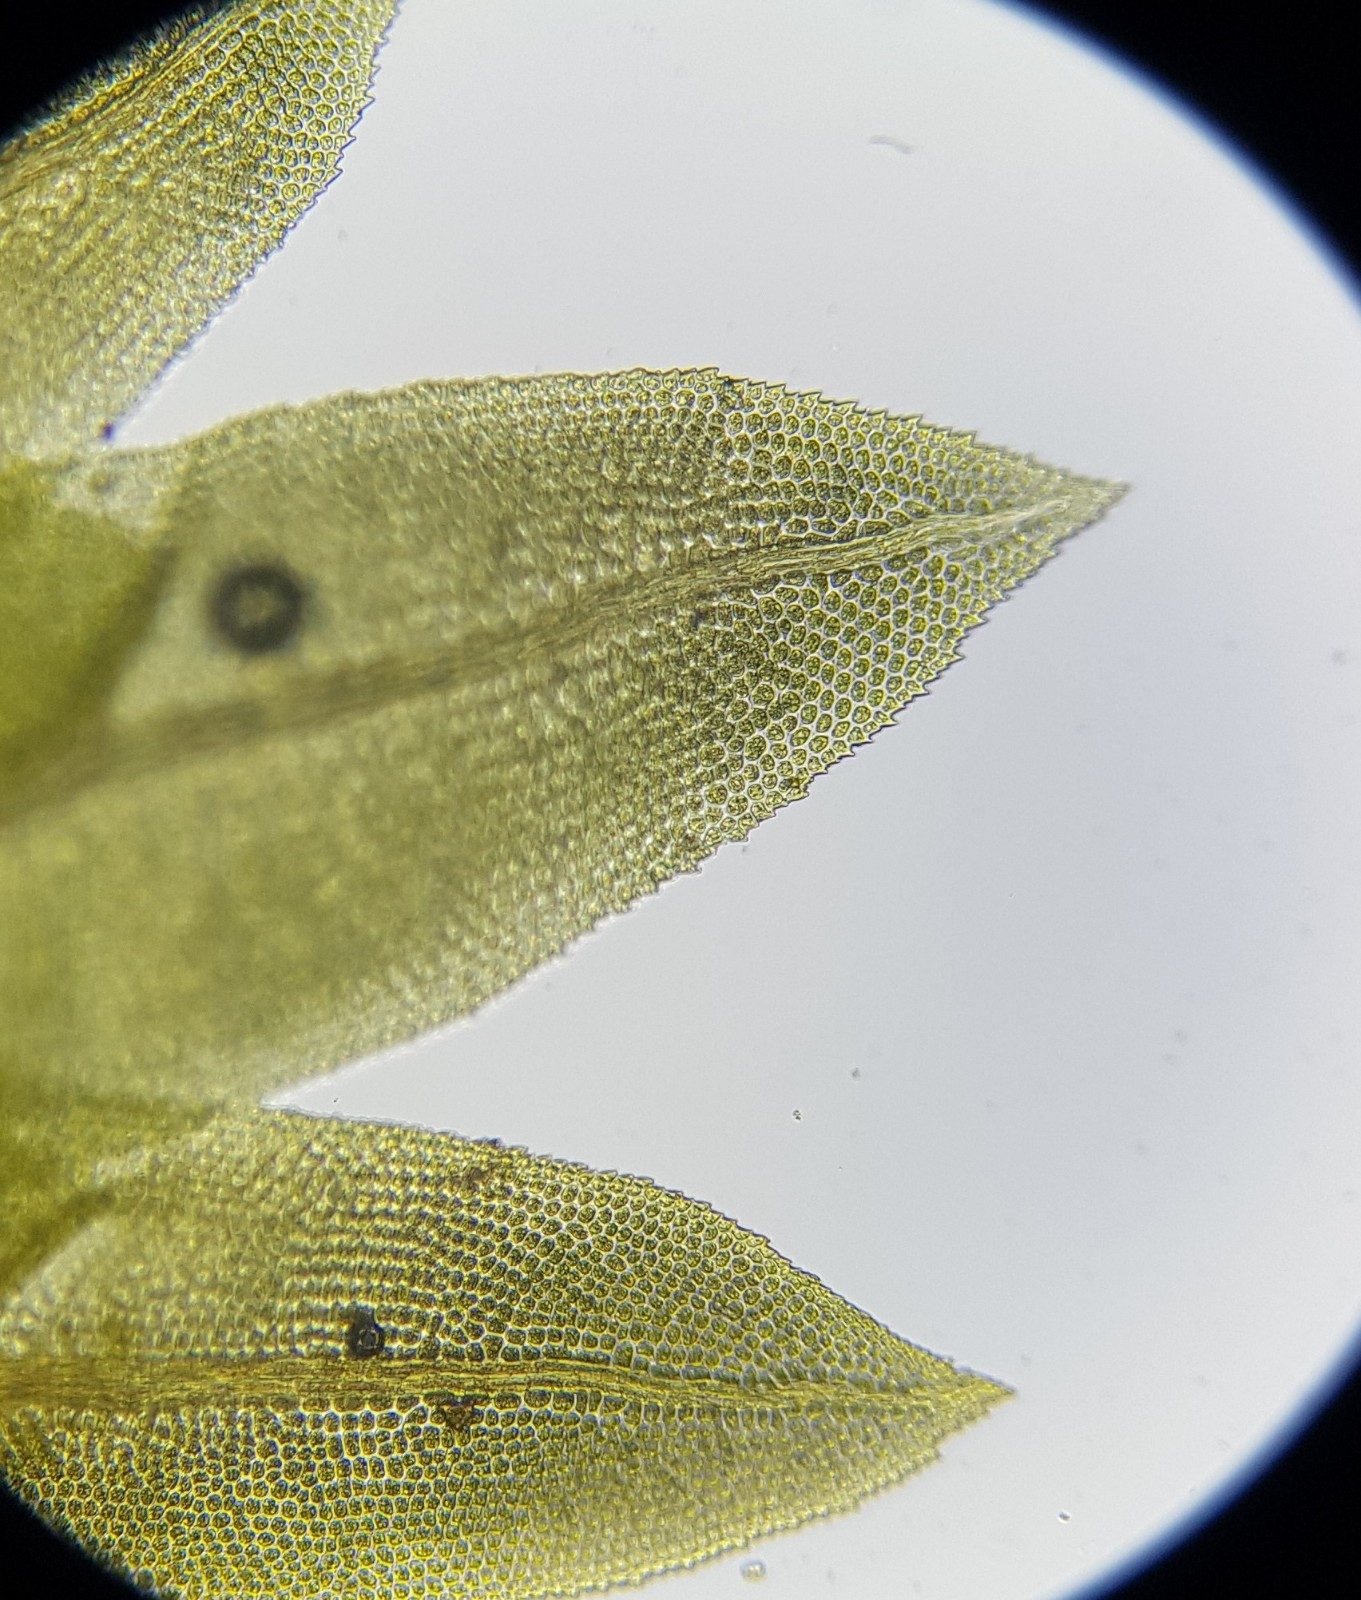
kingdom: Plantae
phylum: Bryophyta
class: Bryopsida
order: Dicranales
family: Fissidentaceae
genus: Fissidens
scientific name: Fissidens dubius
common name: Rock pocket moss
